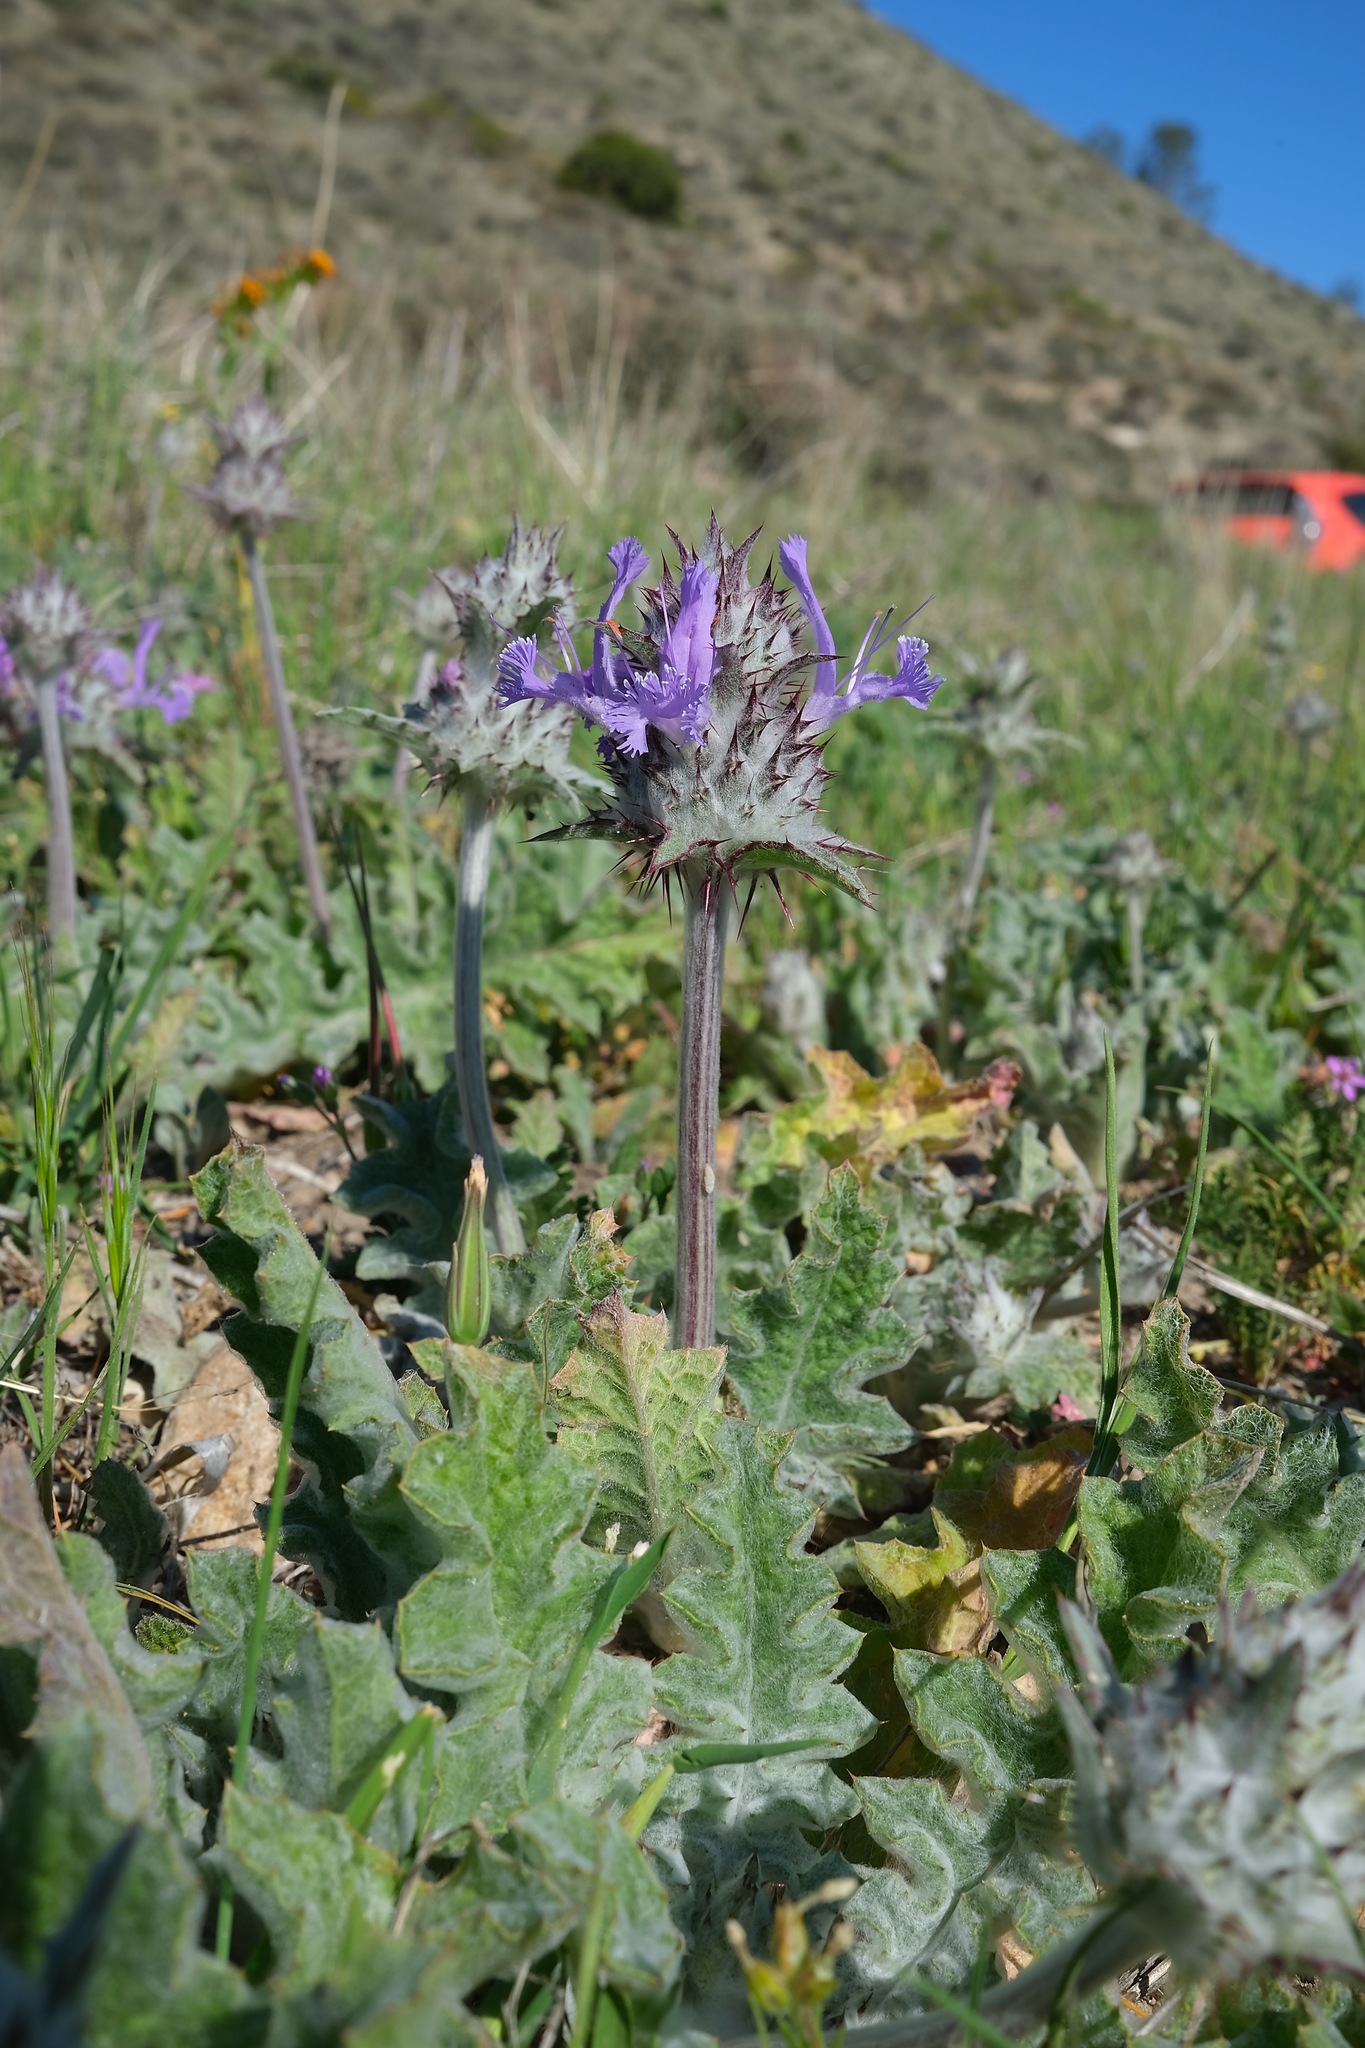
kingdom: Plantae
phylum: Tracheophyta
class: Magnoliopsida
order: Lamiales
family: Lamiaceae
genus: Salvia
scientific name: Salvia carduacea
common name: Thistle sage
